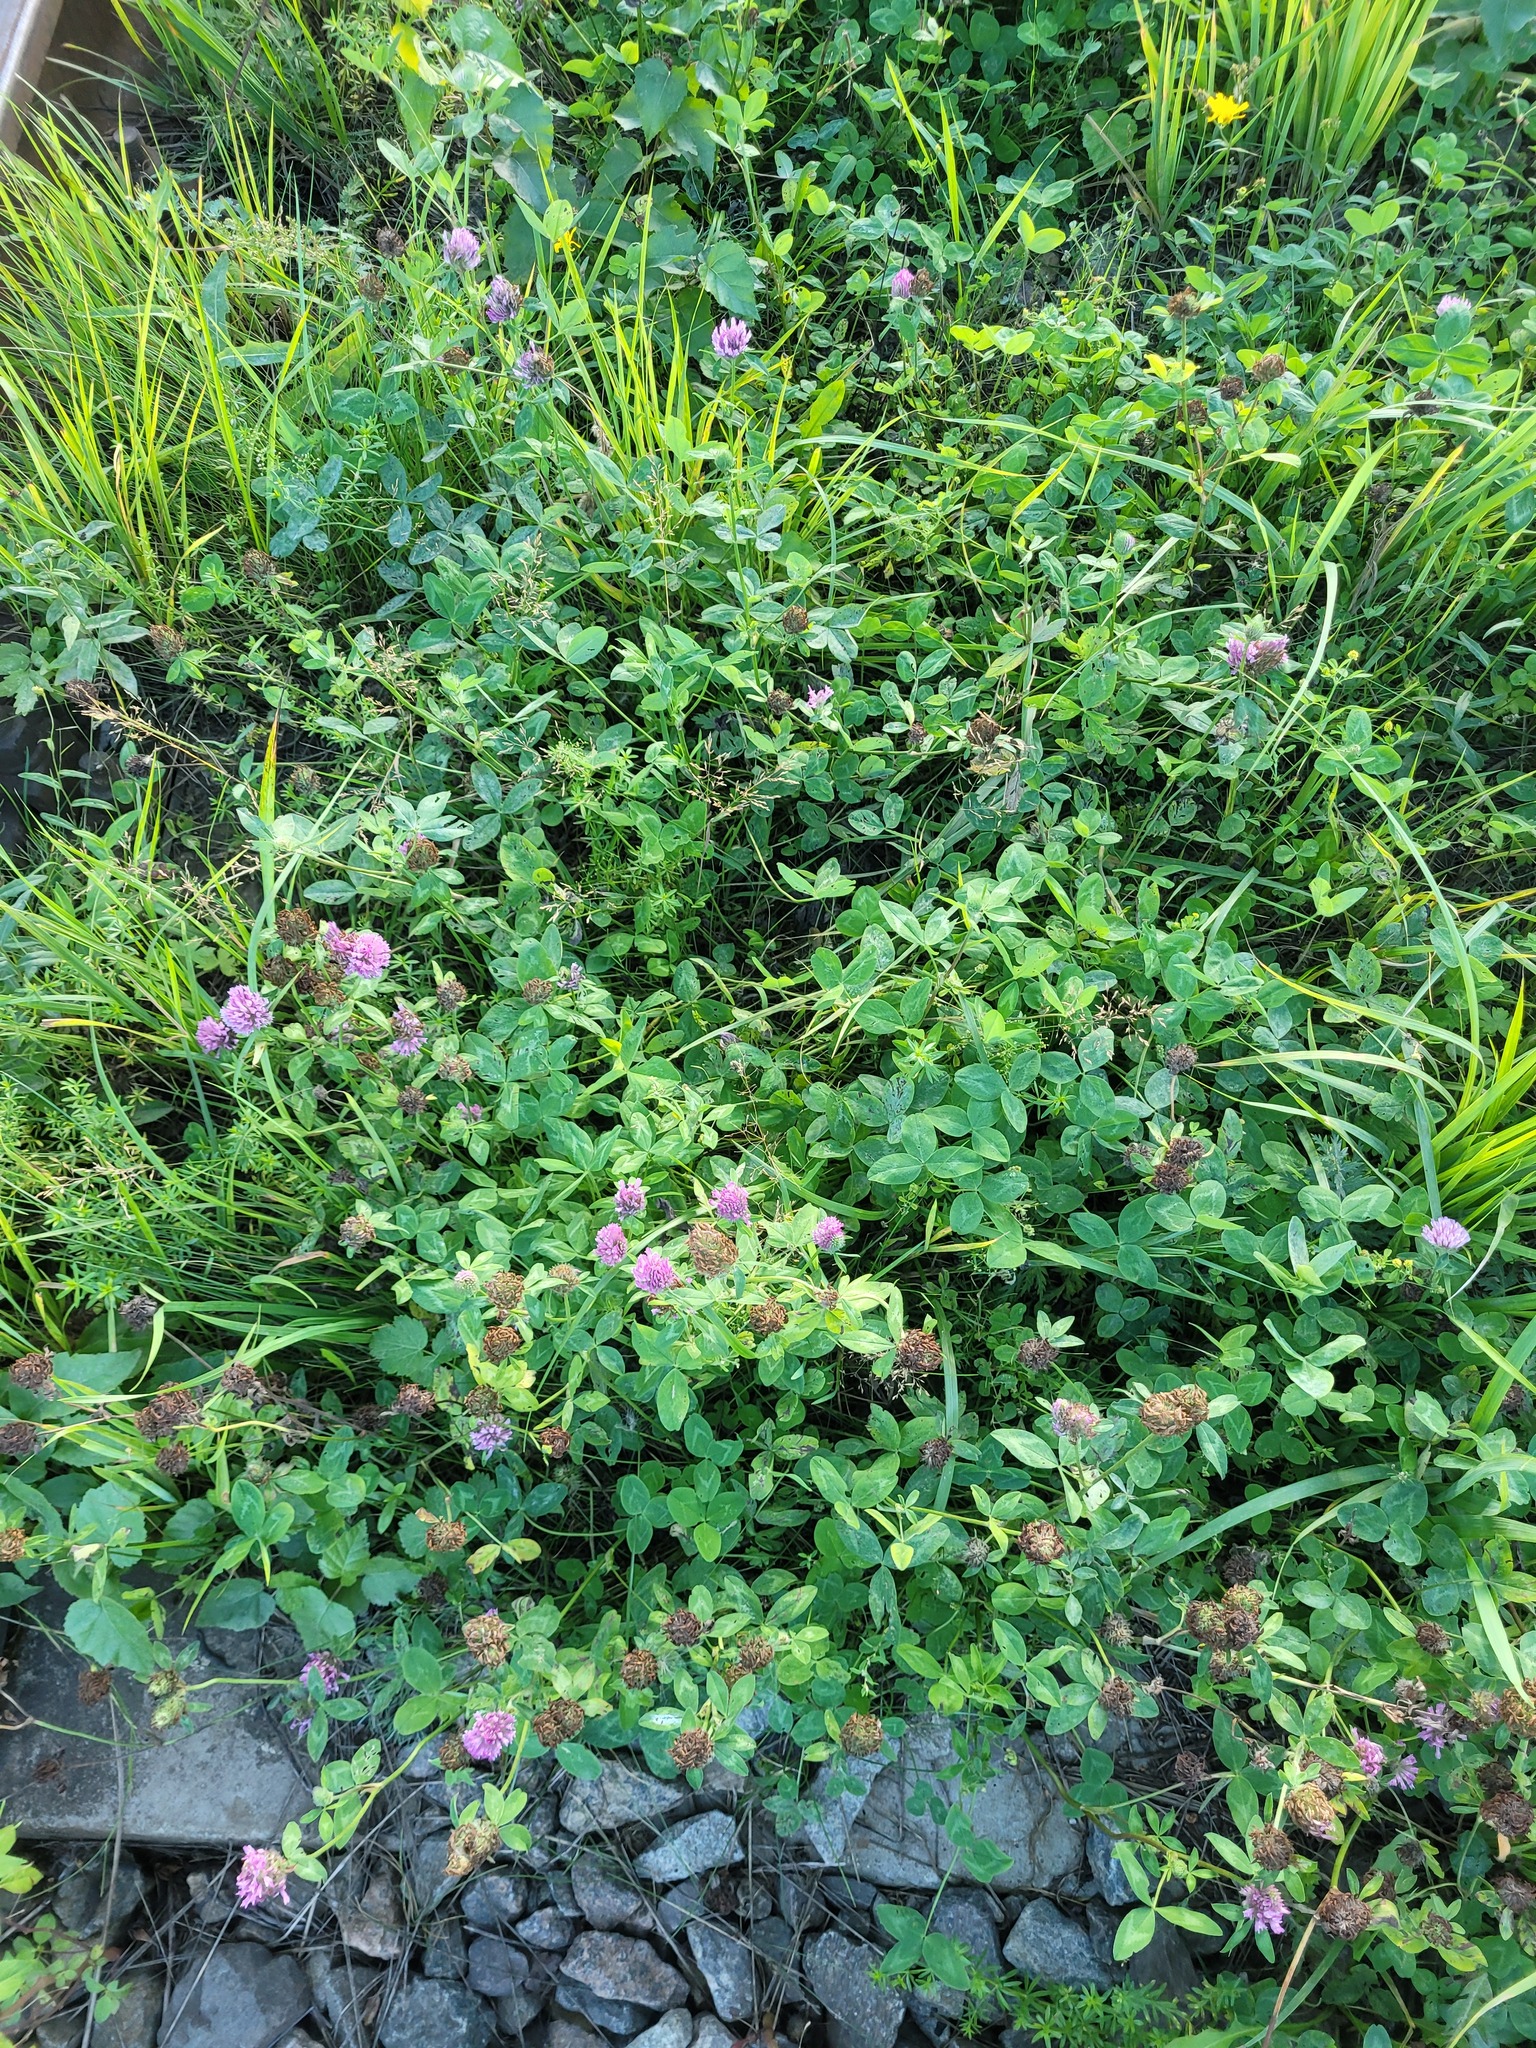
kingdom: Plantae
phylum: Tracheophyta
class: Magnoliopsida
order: Fabales
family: Fabaceae
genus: Trifolium
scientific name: Trifolium pratense
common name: Red clover
